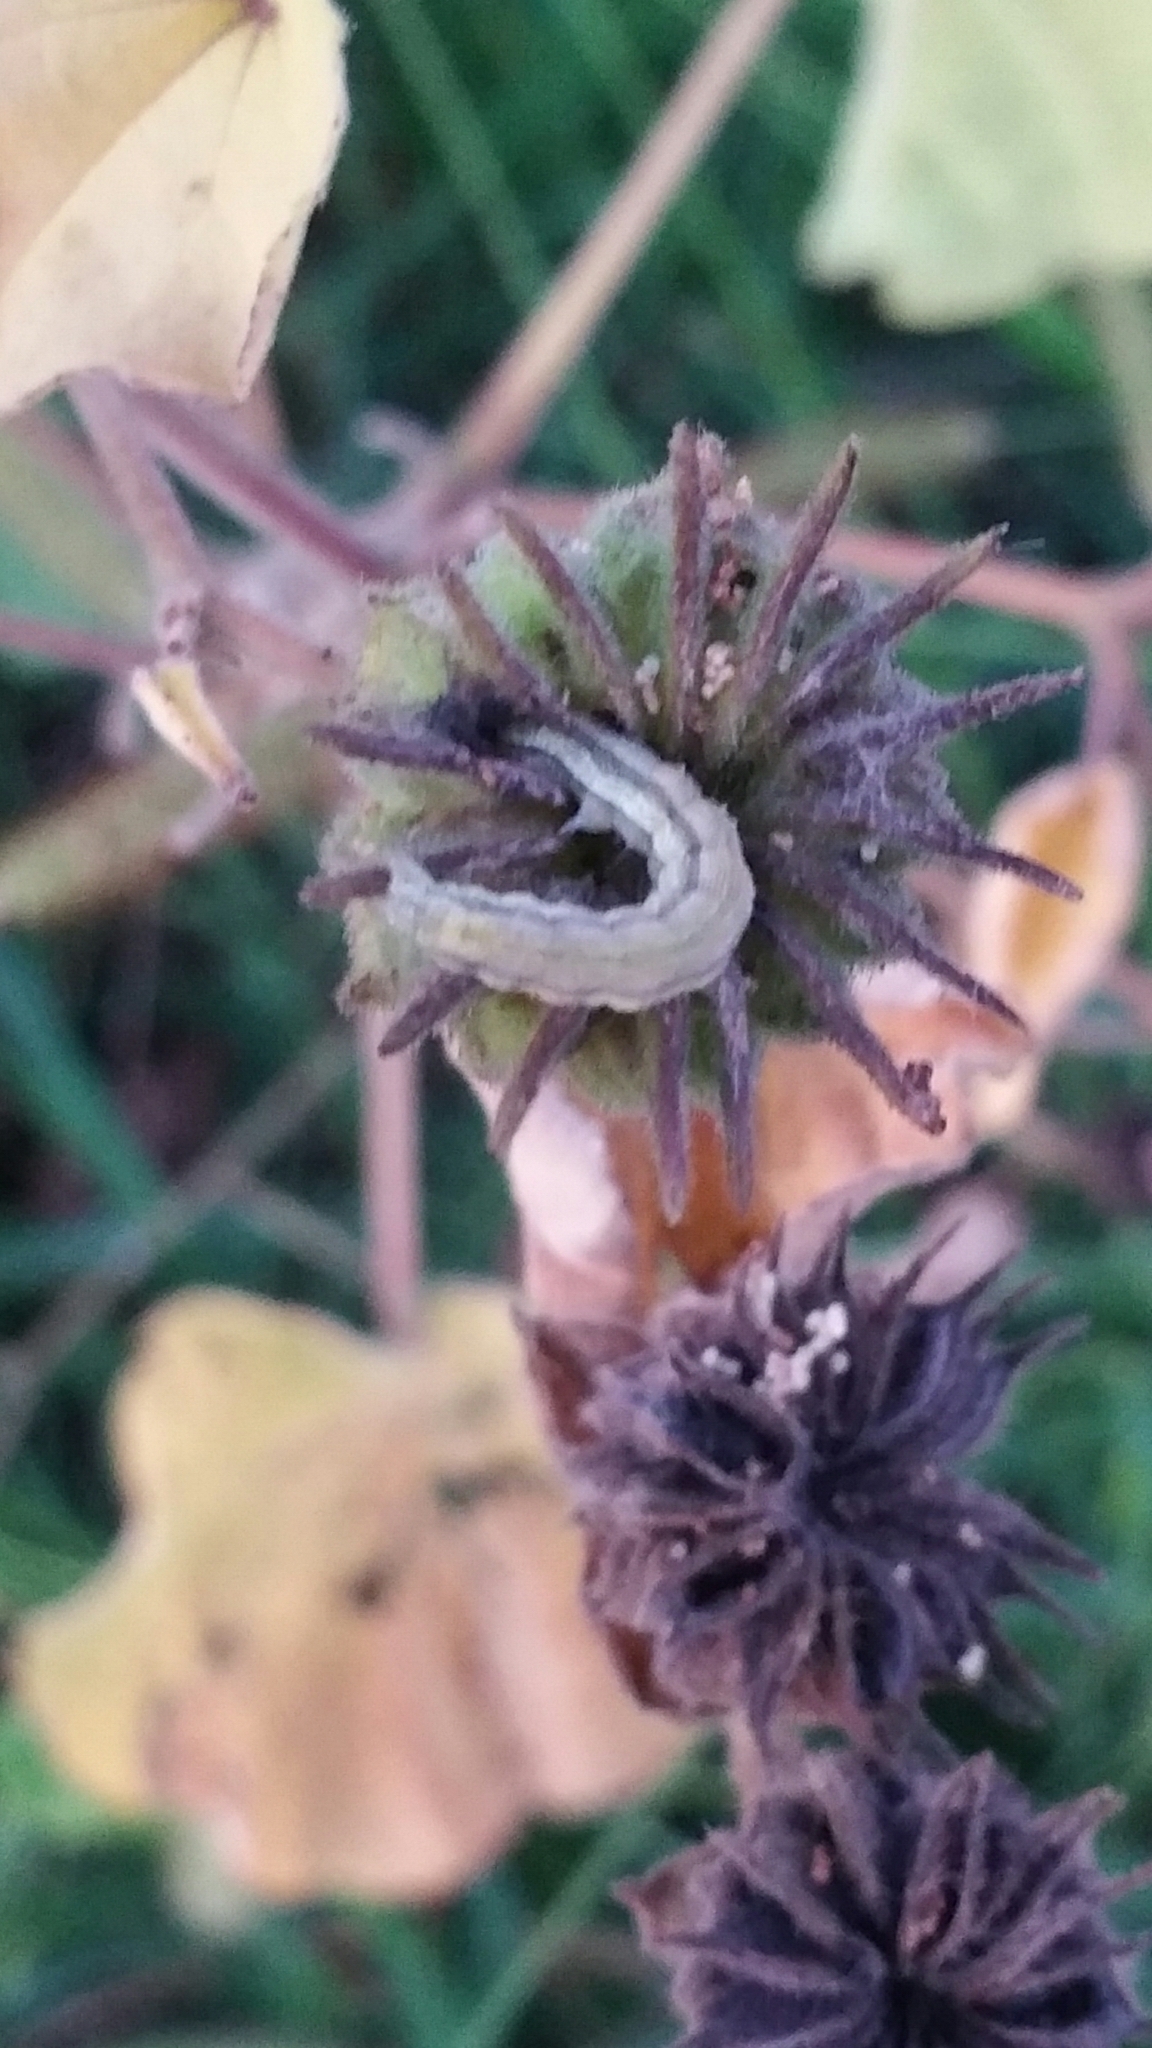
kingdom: Animalia
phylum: Arthropoda
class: Insecta
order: Lepidoptera
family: Noctuidae
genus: Helicoverpa
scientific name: Helicoverpa armigera
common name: Cotton bollworm
